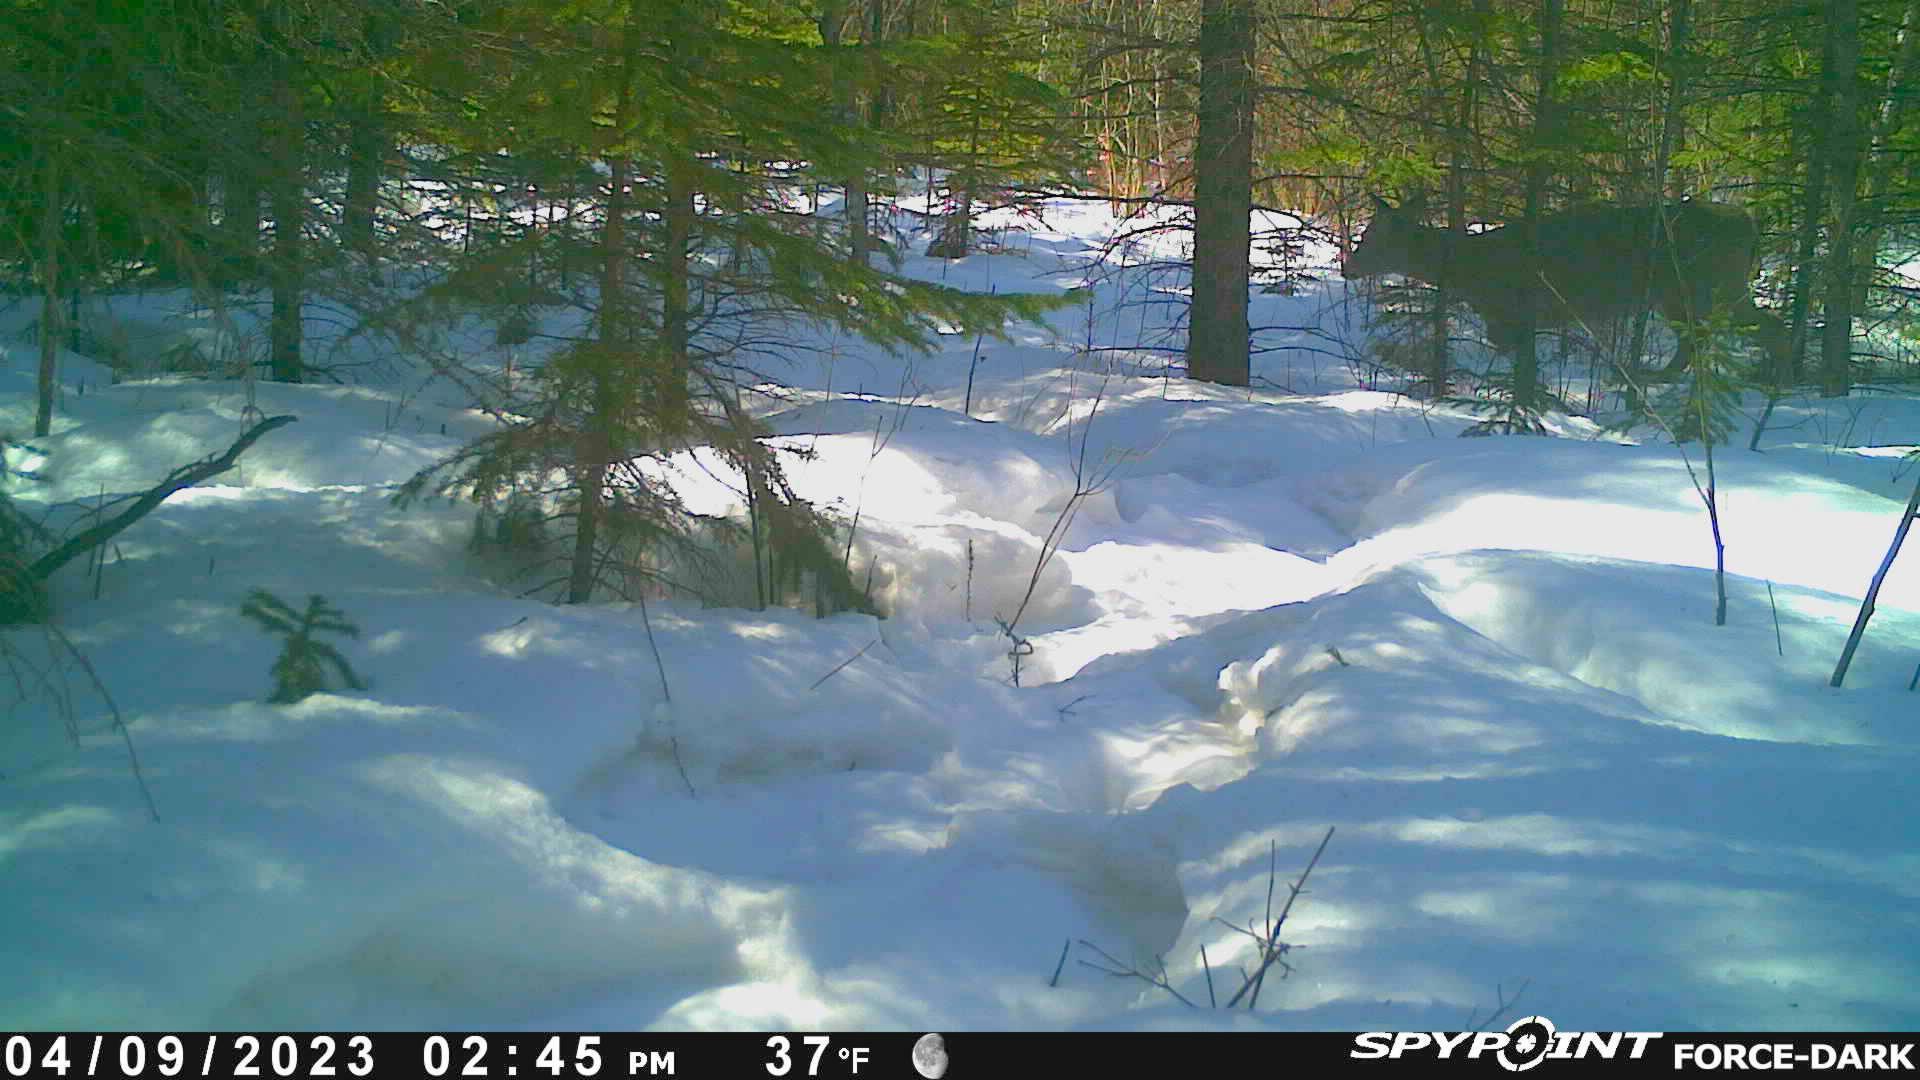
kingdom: Animalia
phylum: Chordata
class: Mammalia
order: Artiodactyla
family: Cervidae
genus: Odocoileus
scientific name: Odocoileus virginianus
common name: White-tailed deer
